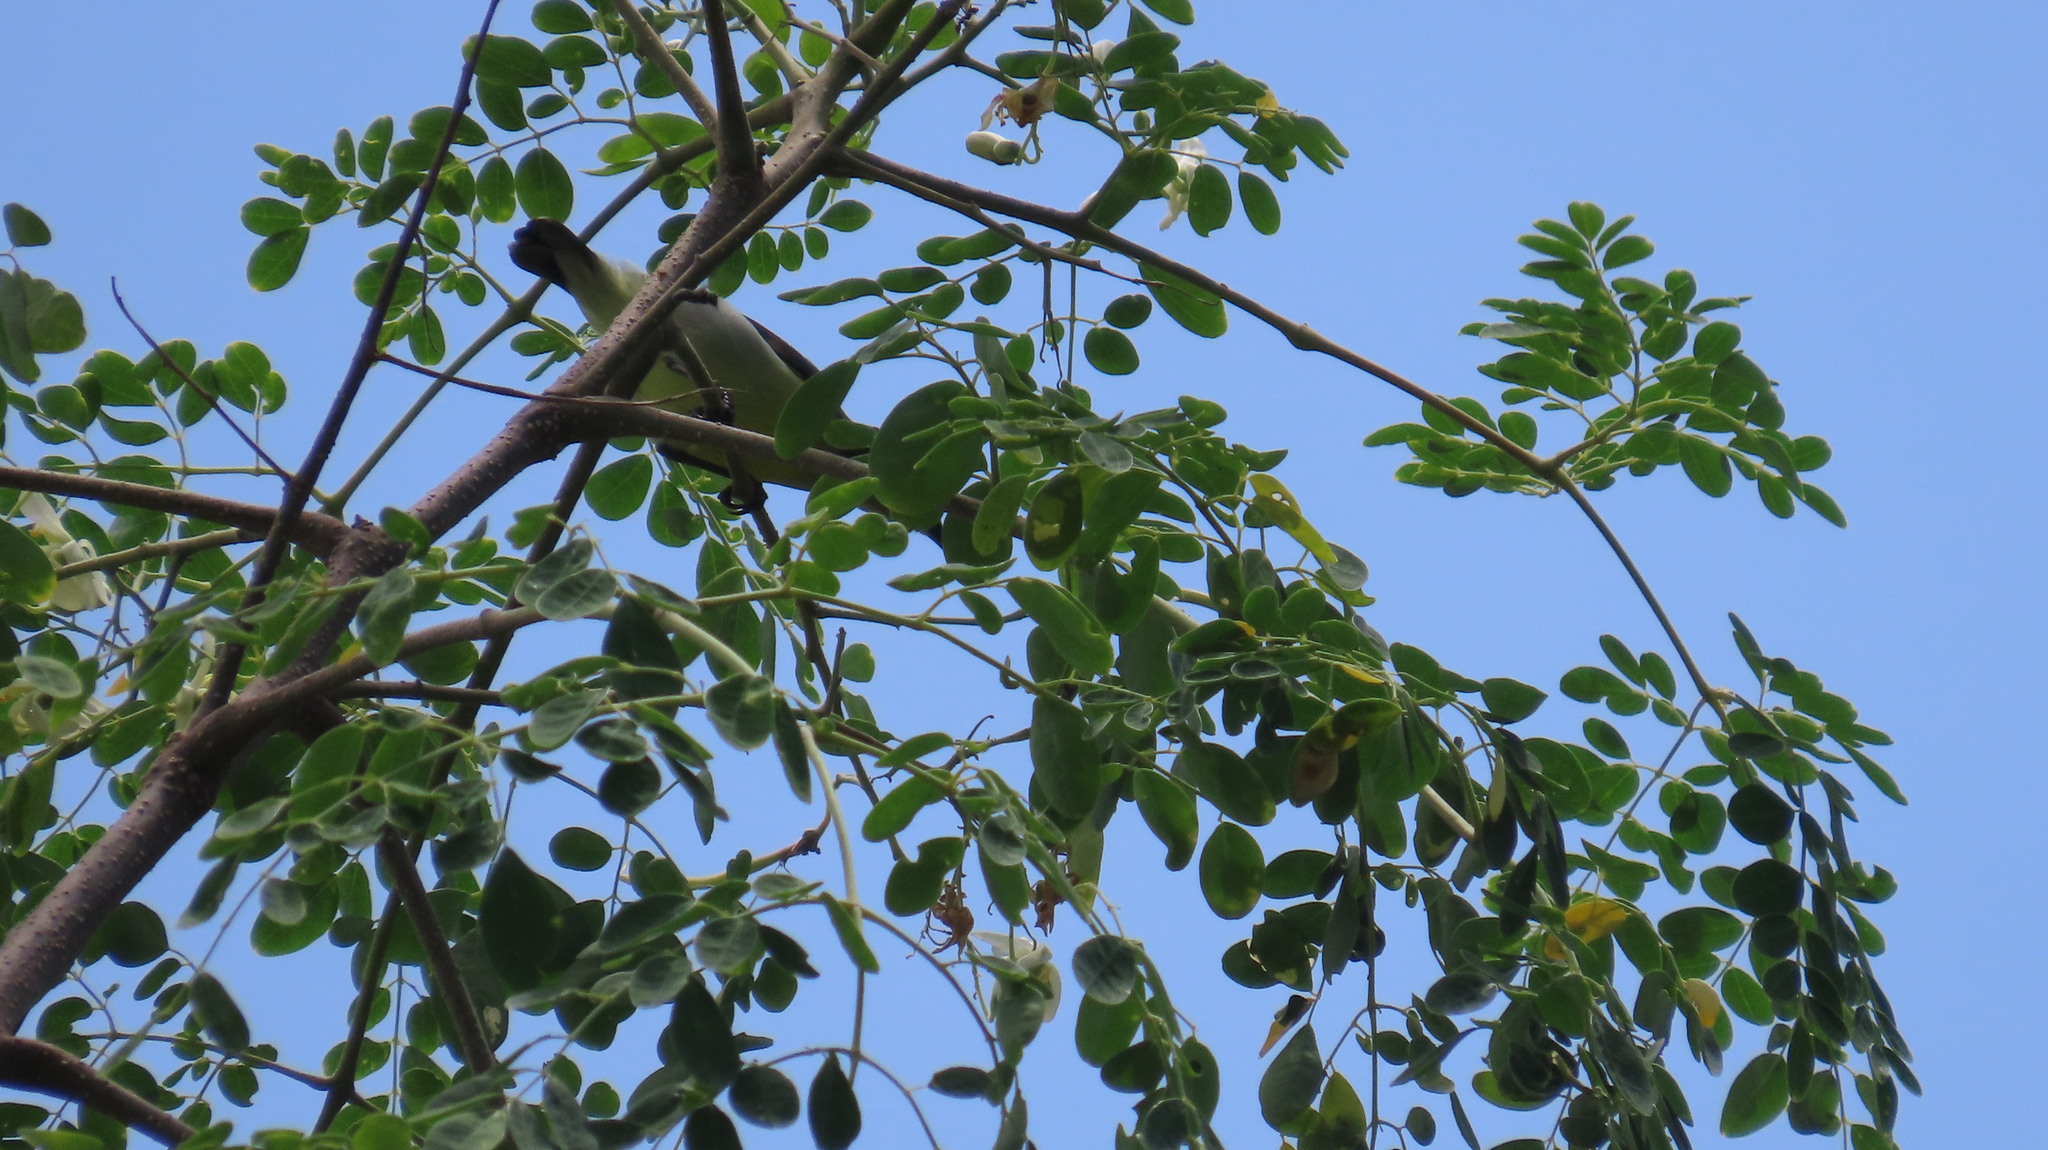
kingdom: Animalia
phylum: Chordata
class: Aves
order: Passeriformes
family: Nectariniidae
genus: Leptocoma
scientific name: Leptocoma zeylonica
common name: Purple-rumped sunbird
